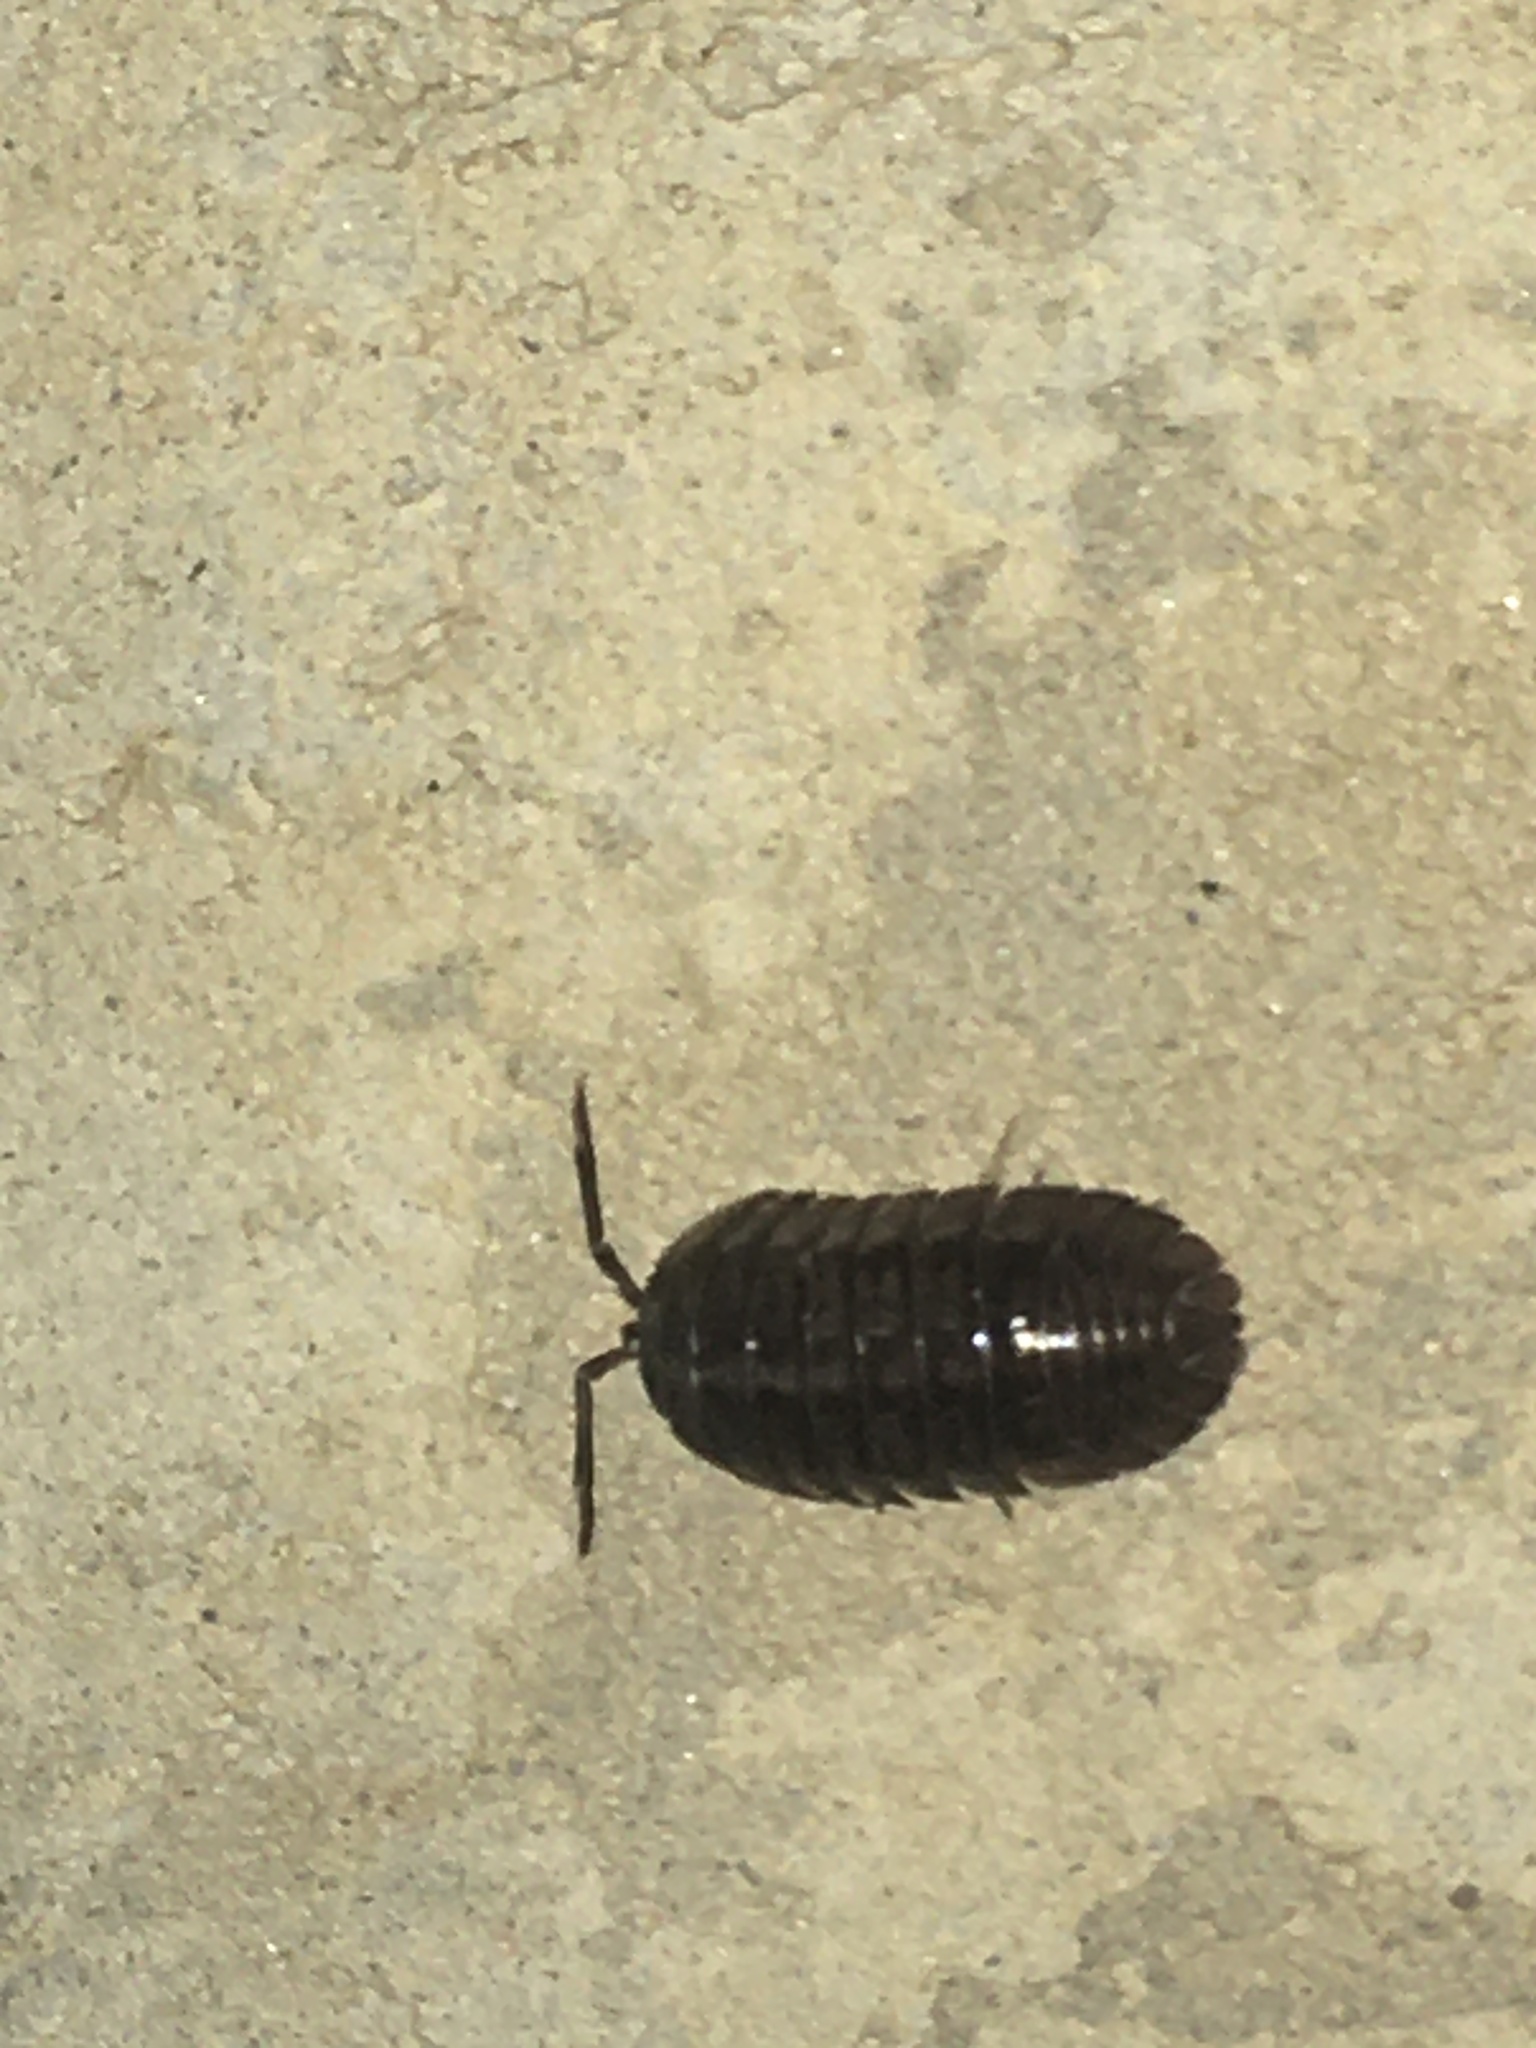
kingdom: Animalia
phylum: Arthropoda
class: Malacostraca
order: Isopoda
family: Armadillidiidae
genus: Armadillidium
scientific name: Armadillidium nasatum
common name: Isopod
